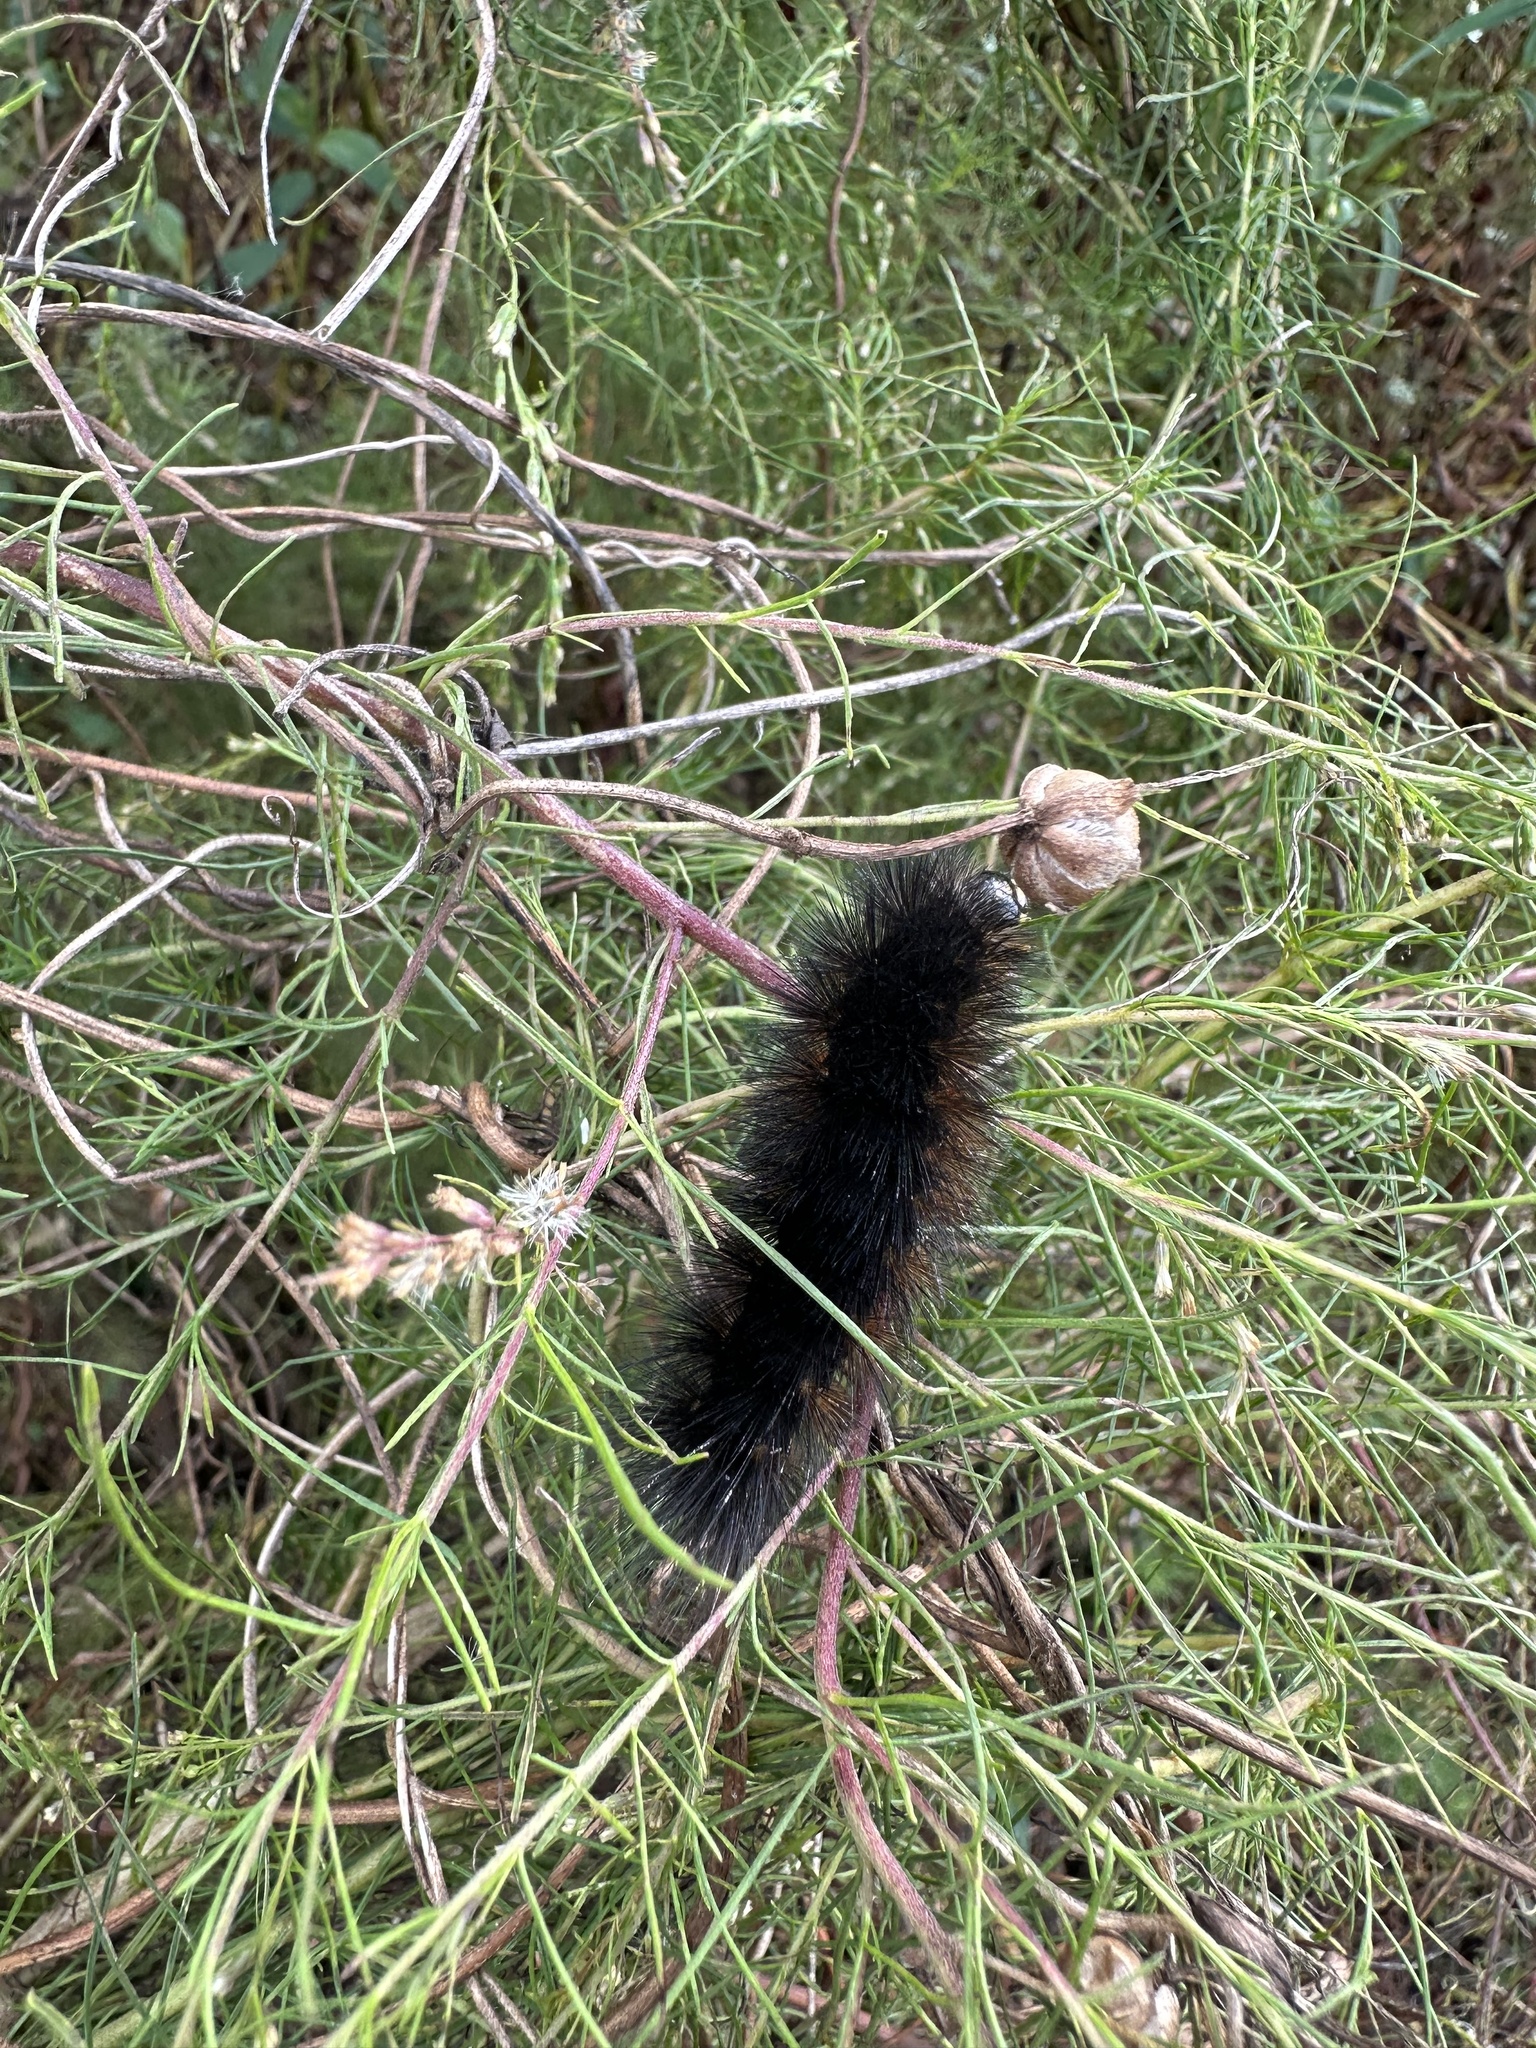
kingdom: Animalia
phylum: Arthropoda
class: Insecta
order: Lepidoptera
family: Erebidae
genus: Estigmene
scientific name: Estigmene acrea
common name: Salt marsh moth
